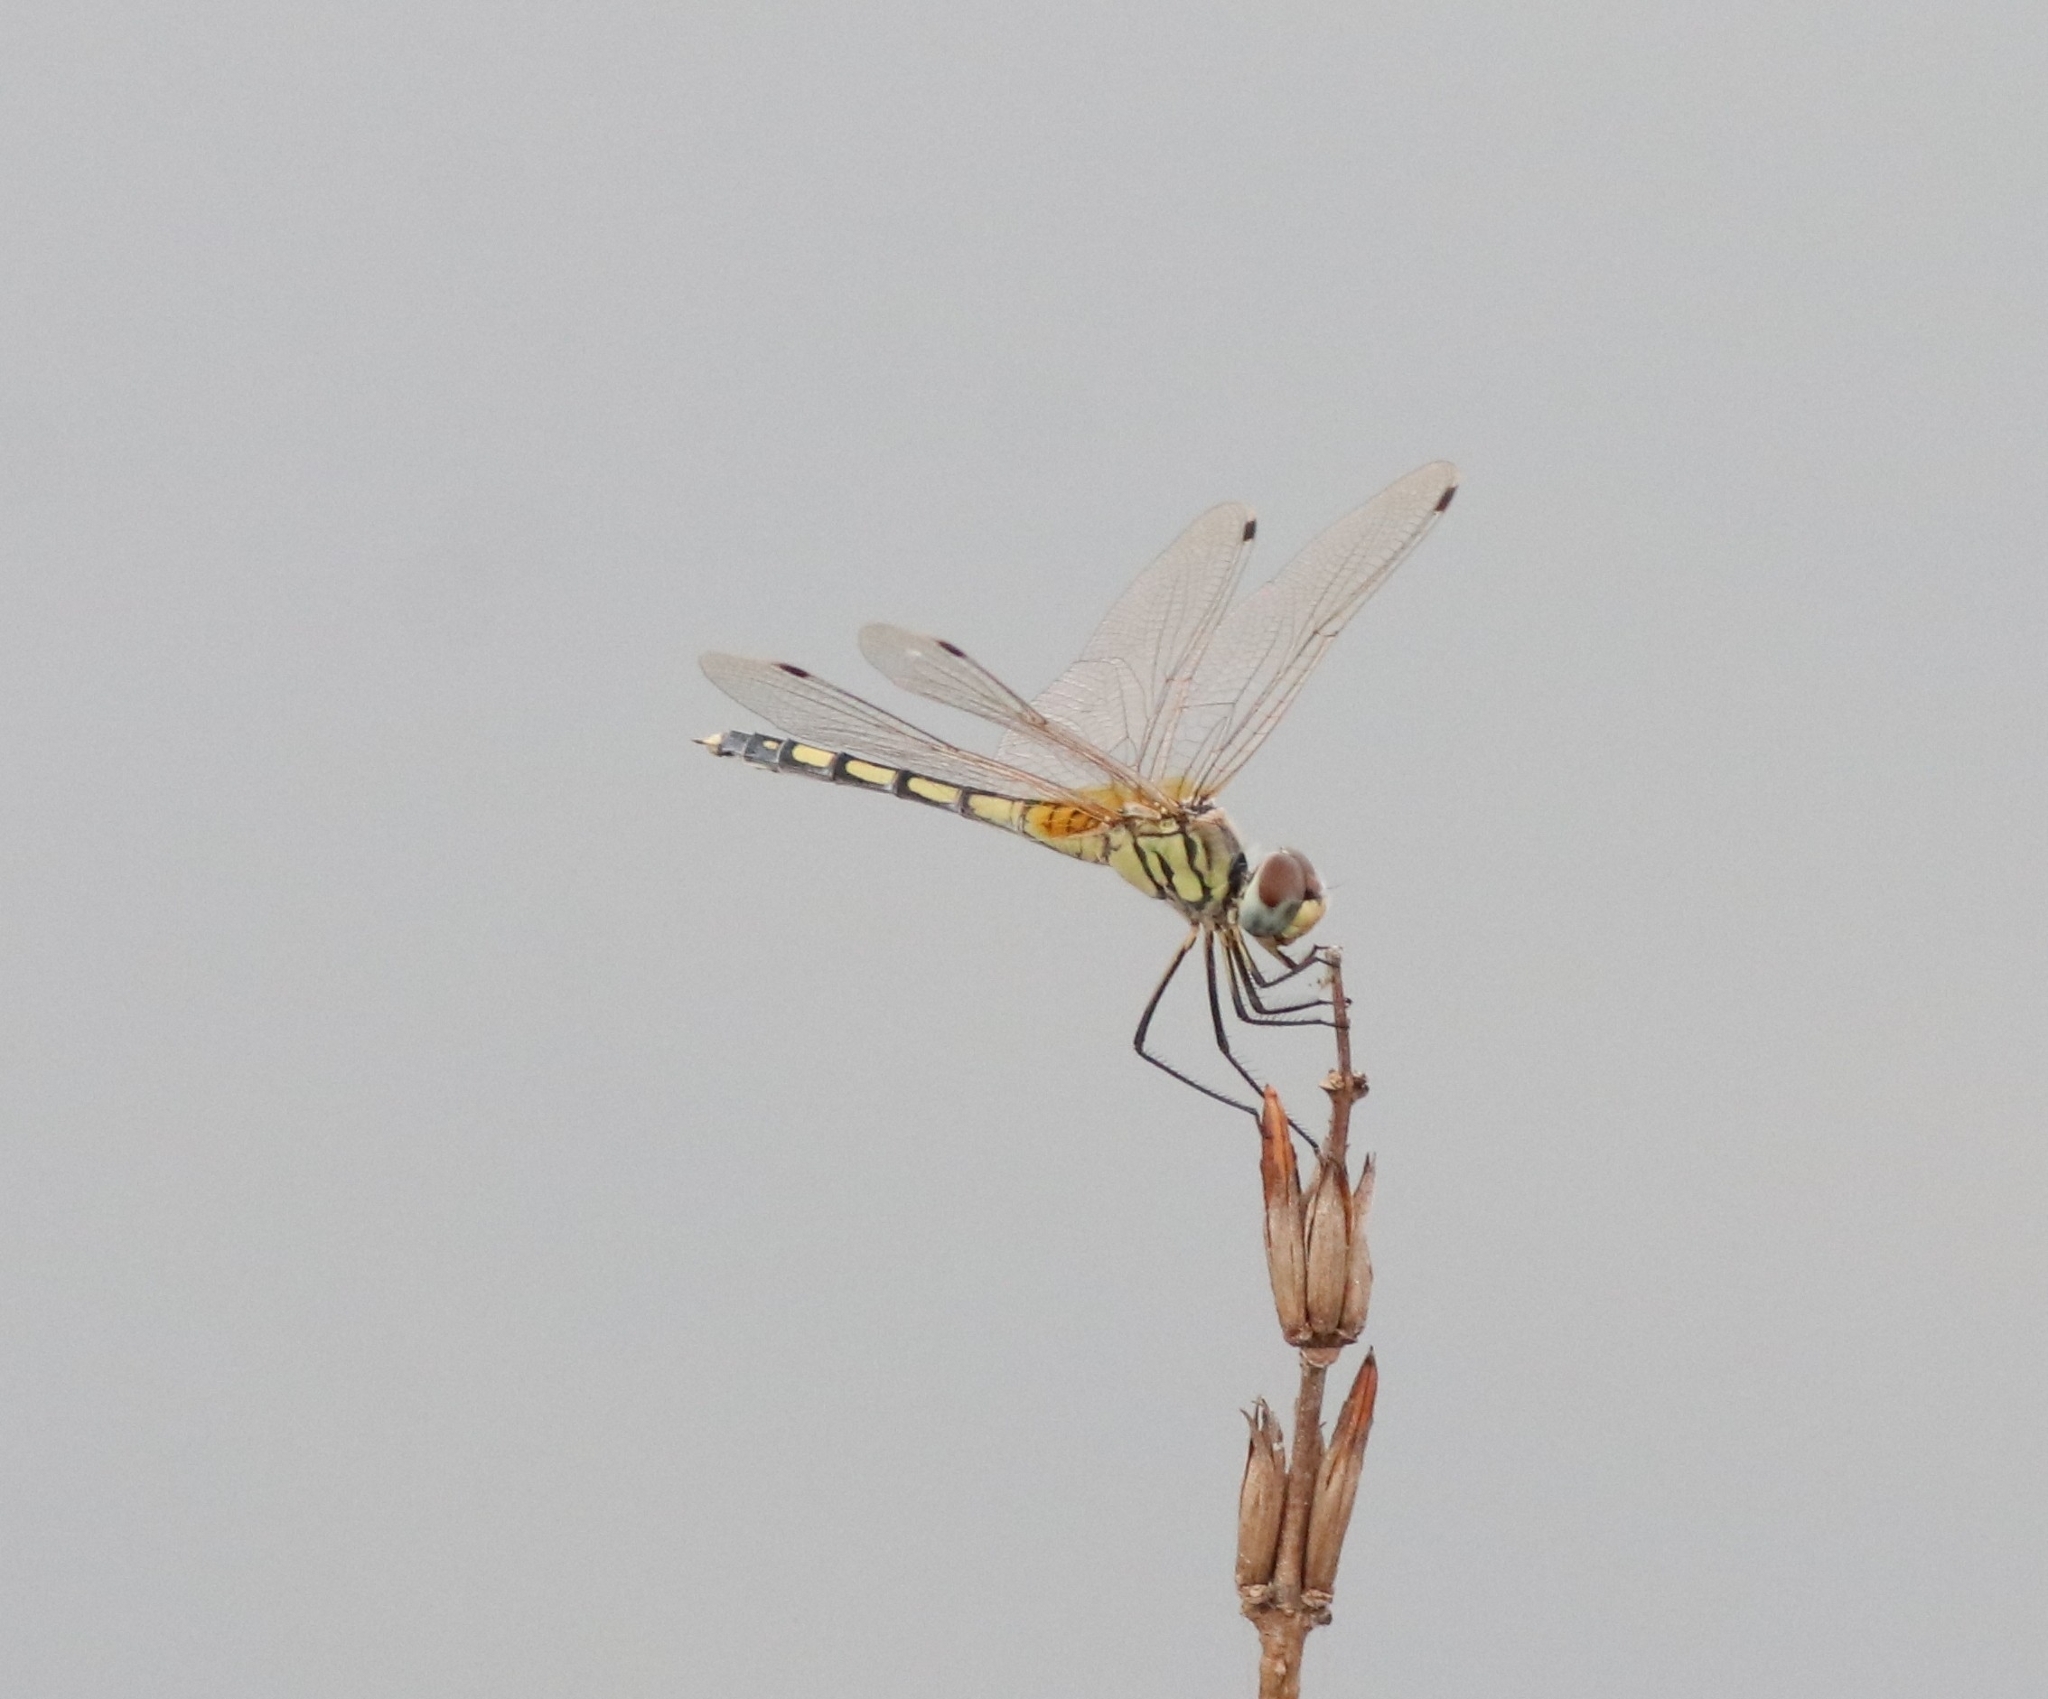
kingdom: Animalia
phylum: Arthropoda
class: Insecta
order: Odonata
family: Libellulidae
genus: Trithemis
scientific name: Trithemis pallidinervis
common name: Dancing dropwing
